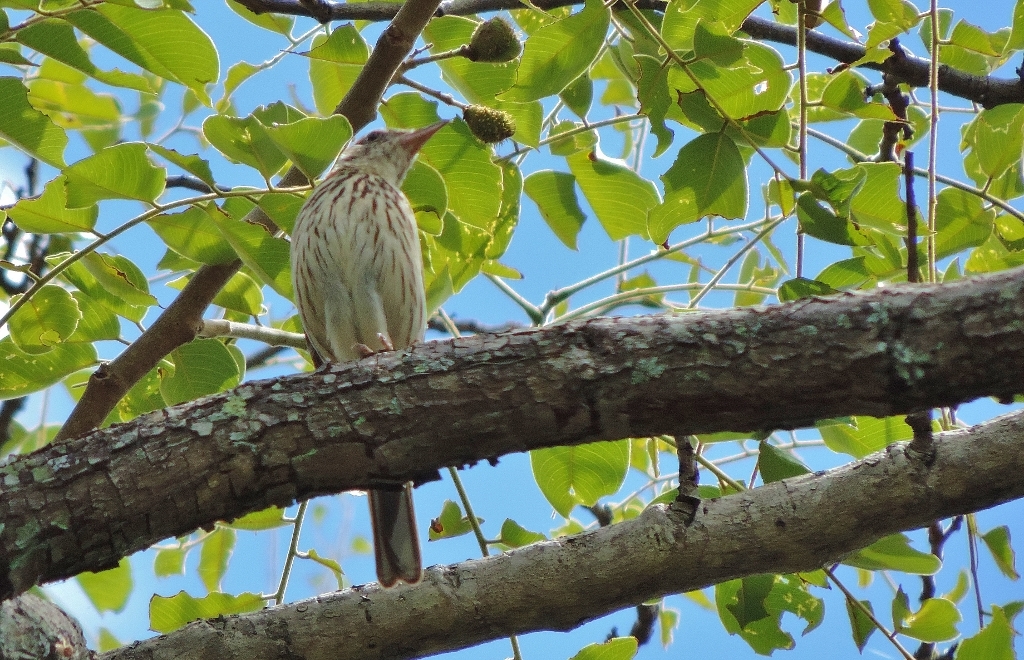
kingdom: Animalia
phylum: Chordata
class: Aves
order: Passeriformes
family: Motacillidae
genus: Anthus
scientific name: Anthus lineiventris
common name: Striped pipit
